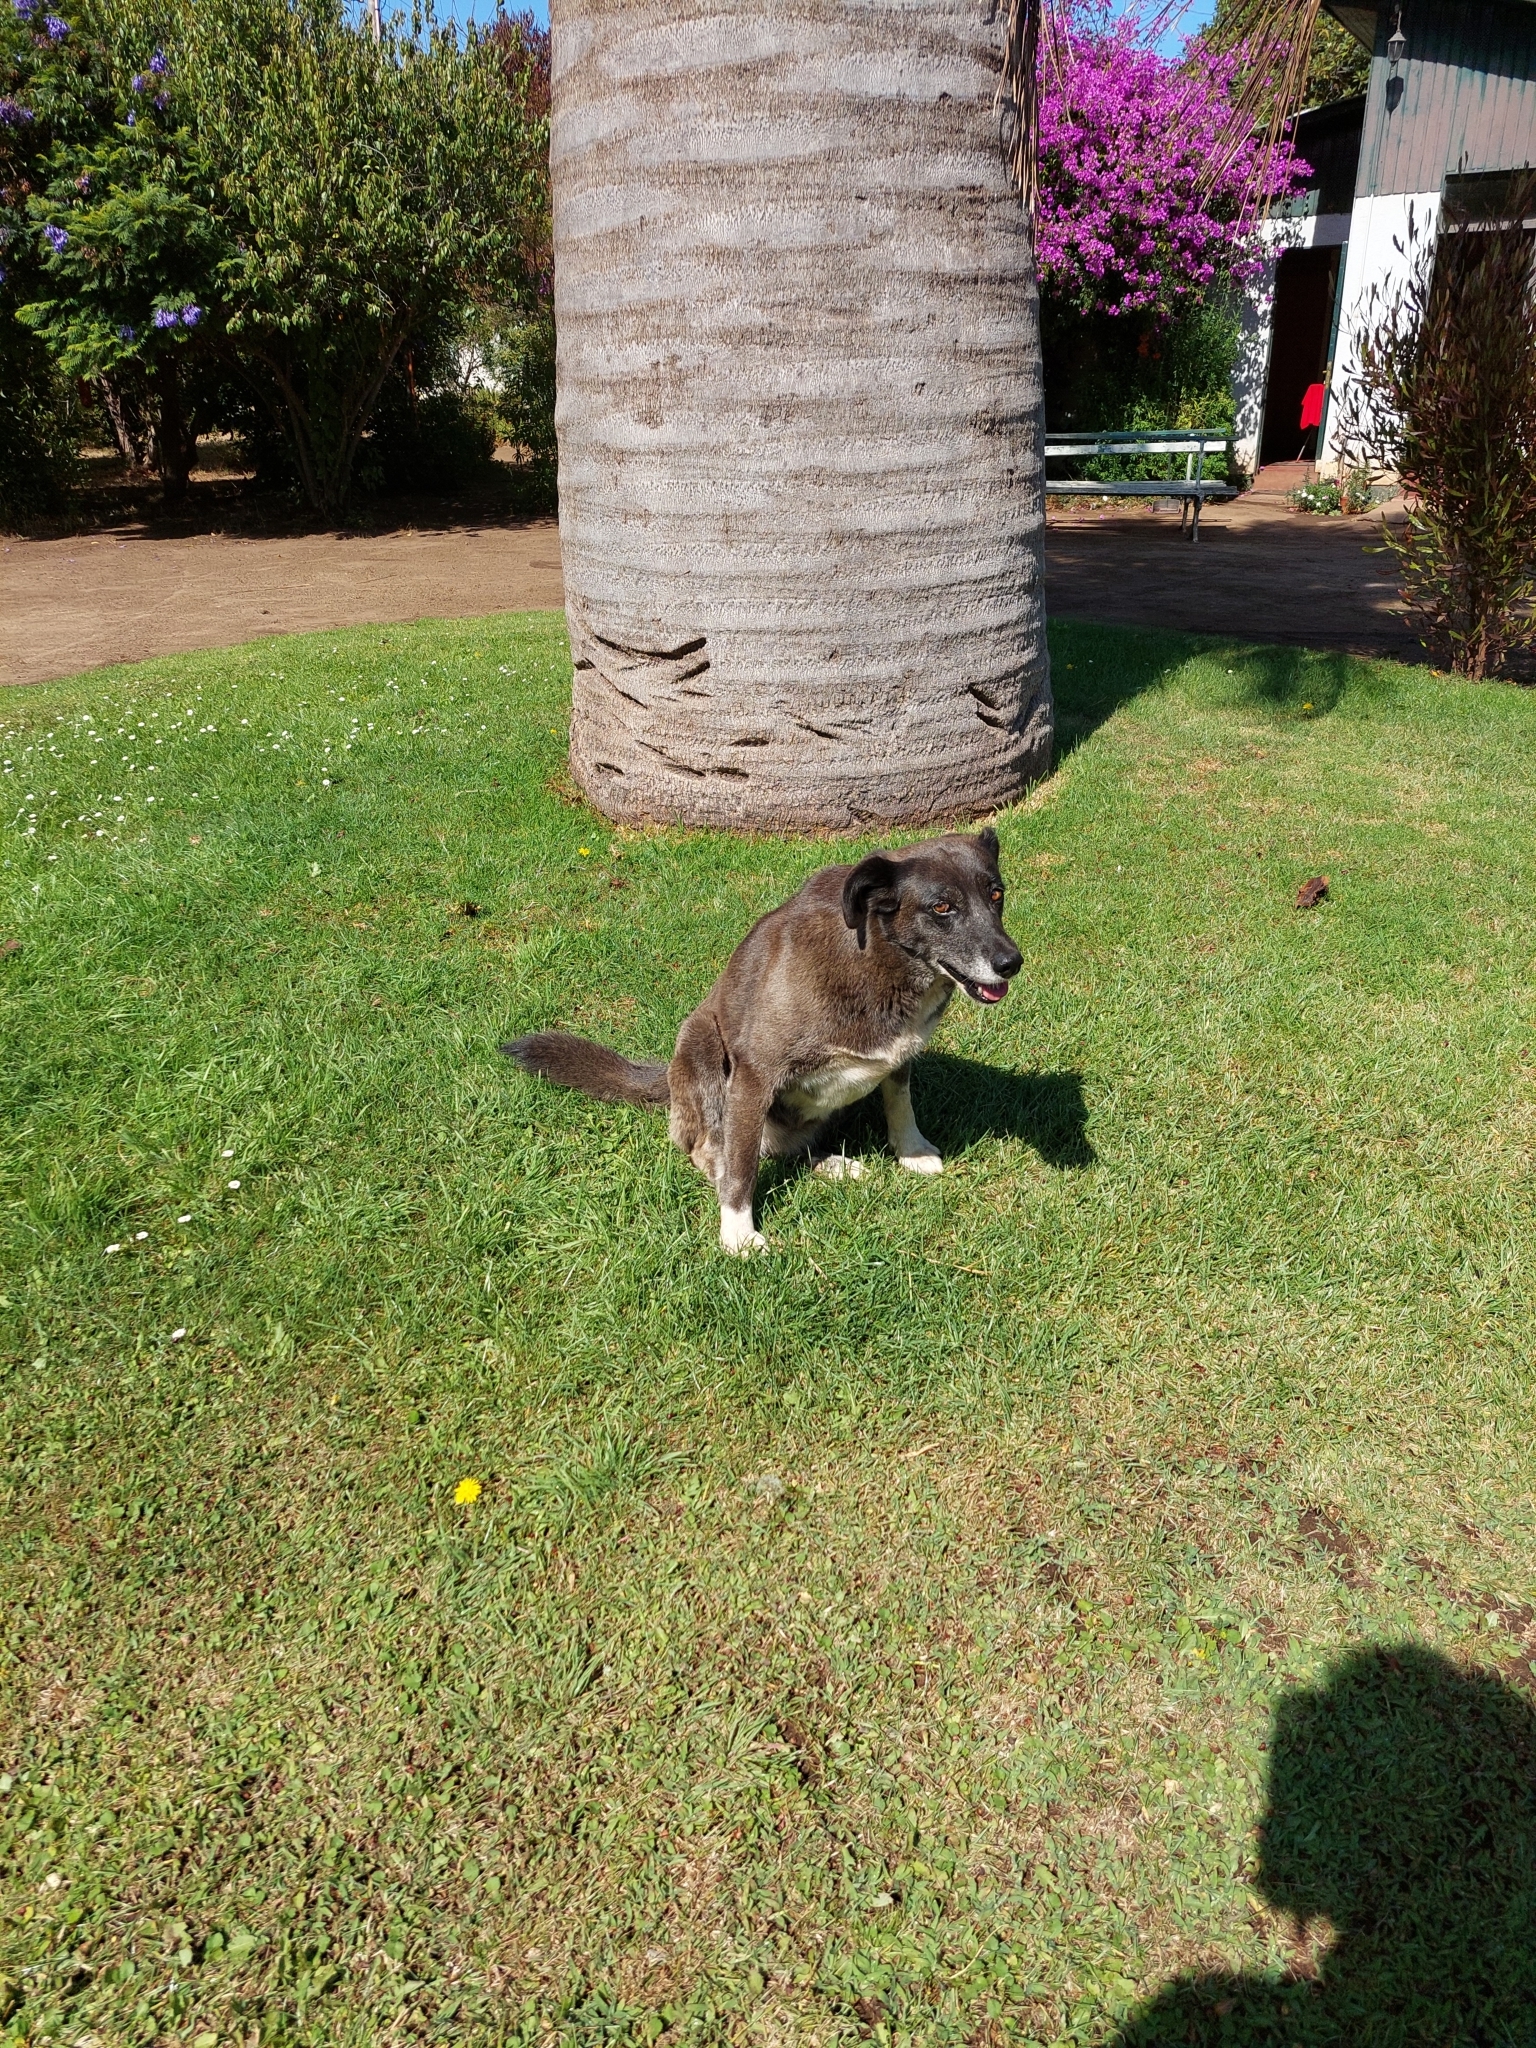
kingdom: Animalia
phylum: Chordata
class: Mammalia
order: Carnivora
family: Canidae
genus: Canis
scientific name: Canis lupus
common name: Gray wolf
